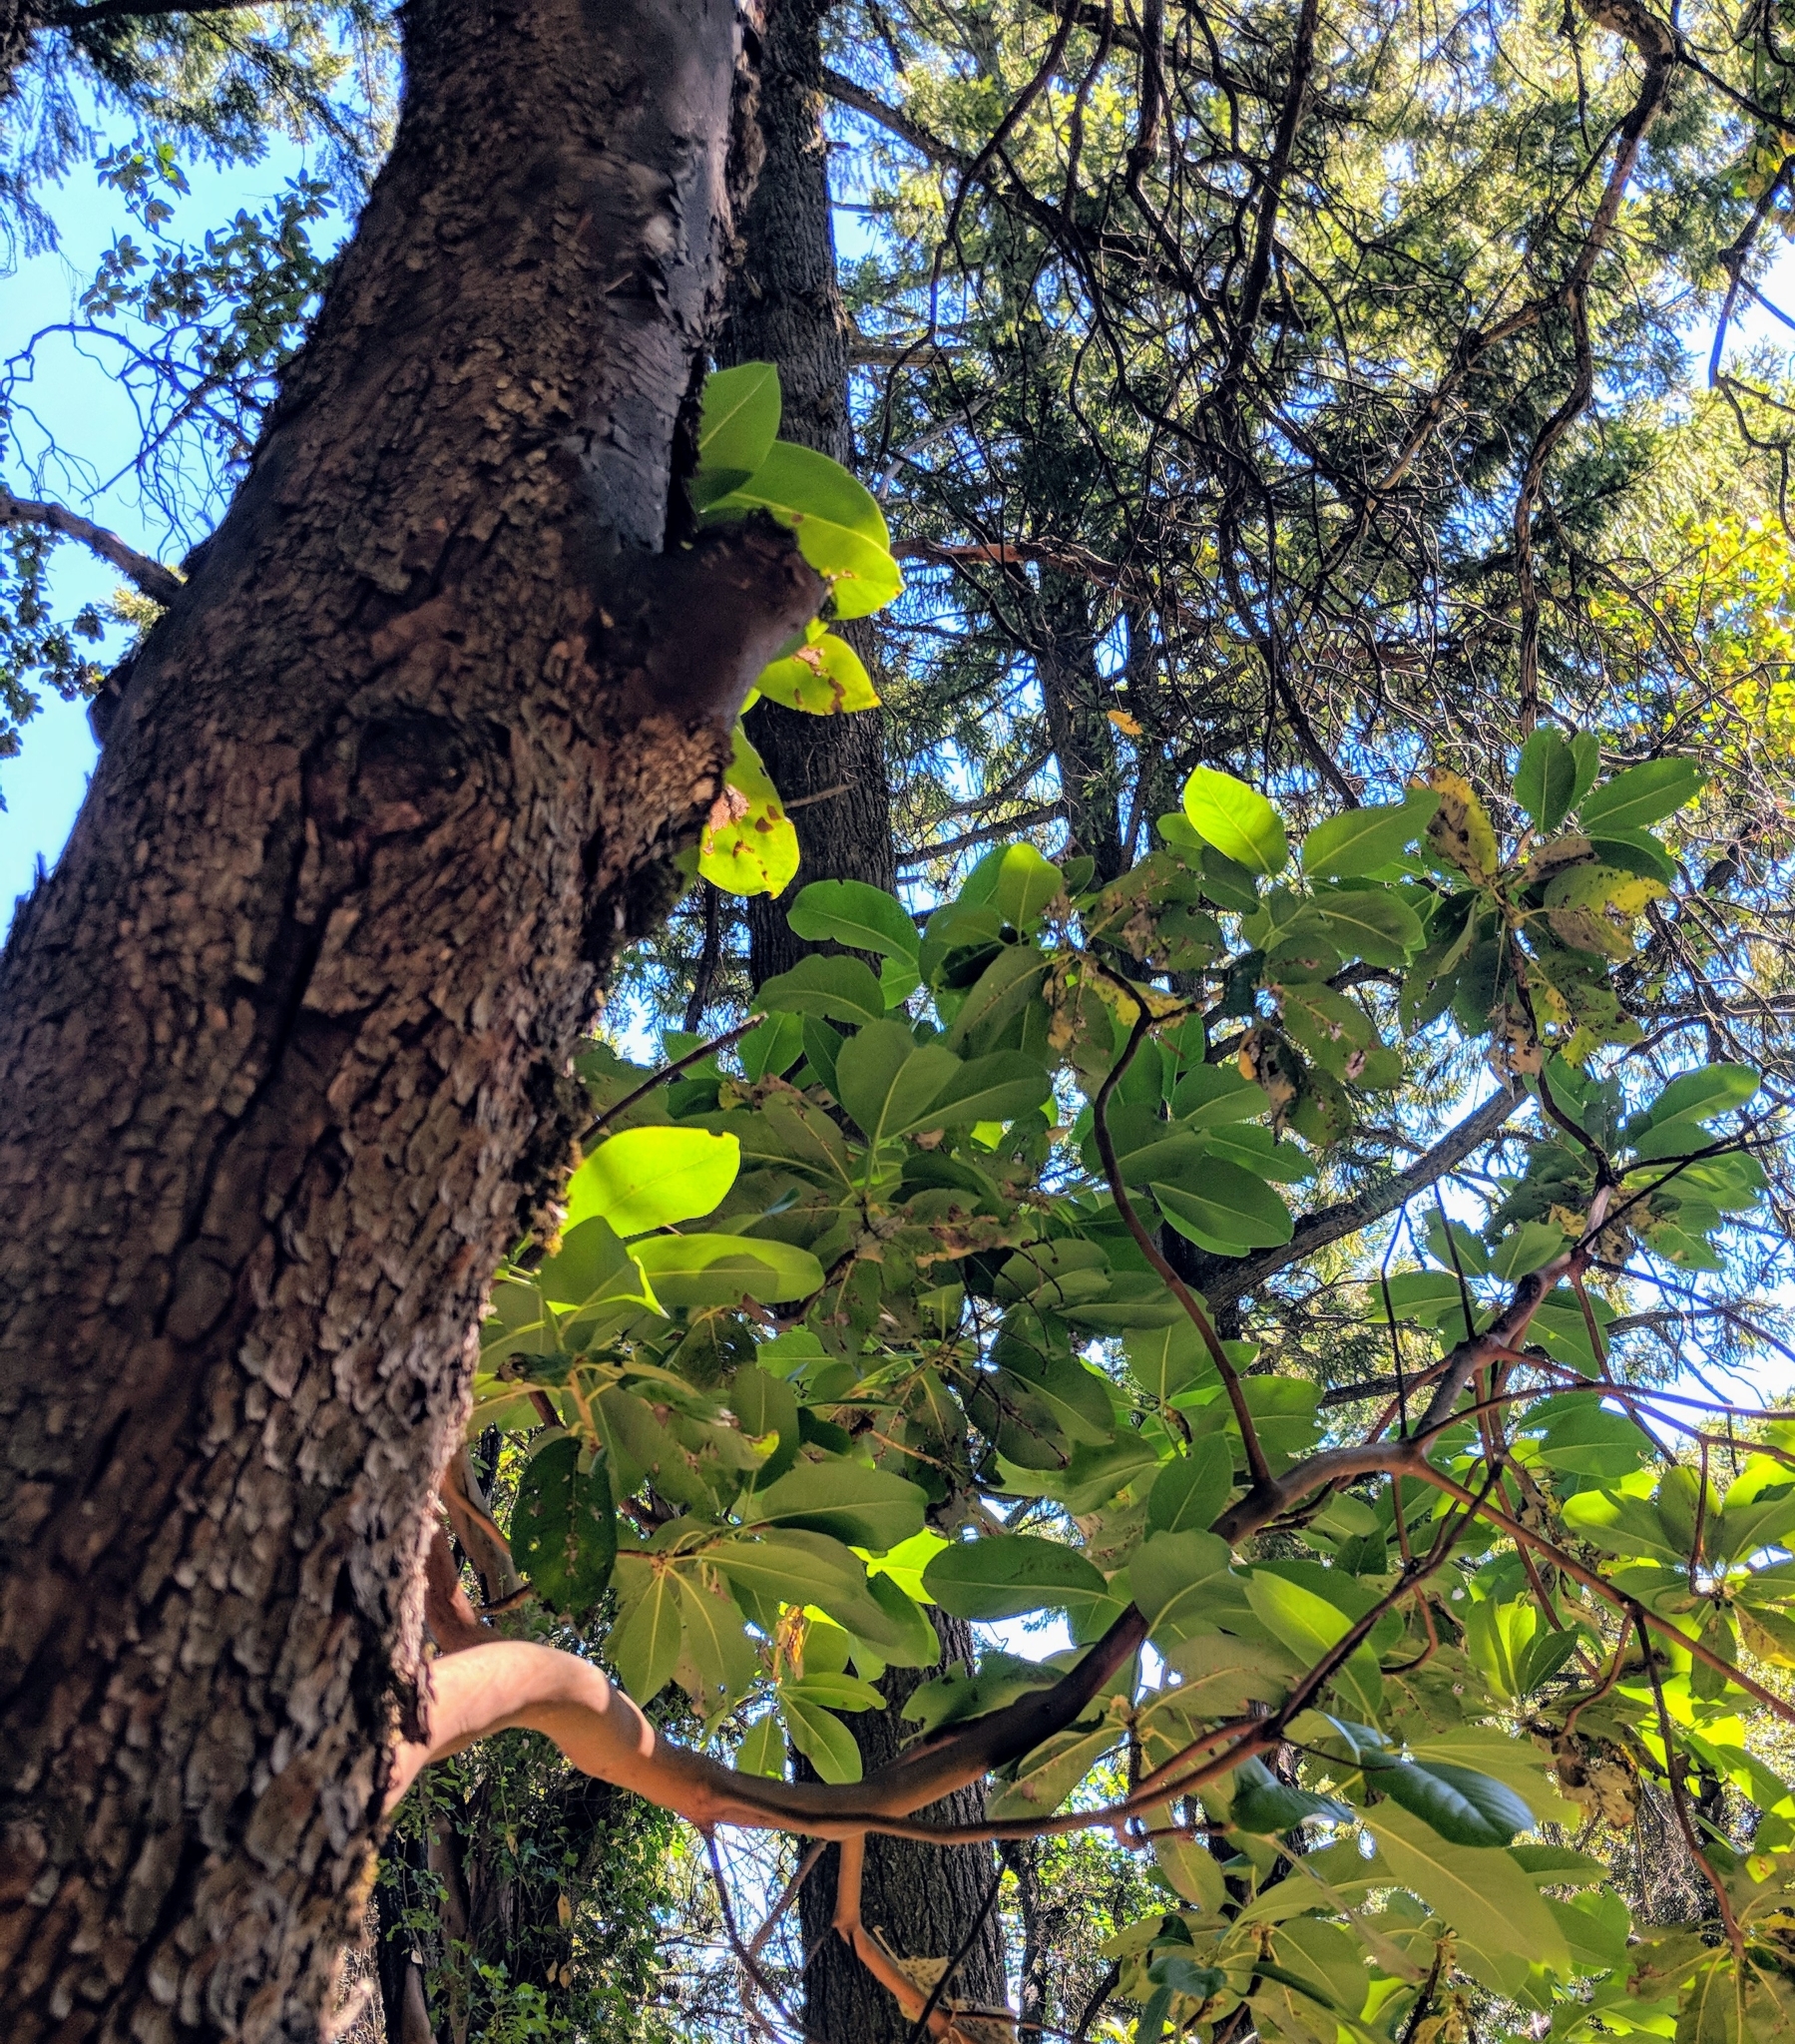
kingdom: Plantae
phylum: Tracheophyta
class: Magnoliopsida
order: Ericales
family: Ericaceae
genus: Arbutus
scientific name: Arbutus menziesii
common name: Pacific madrone
